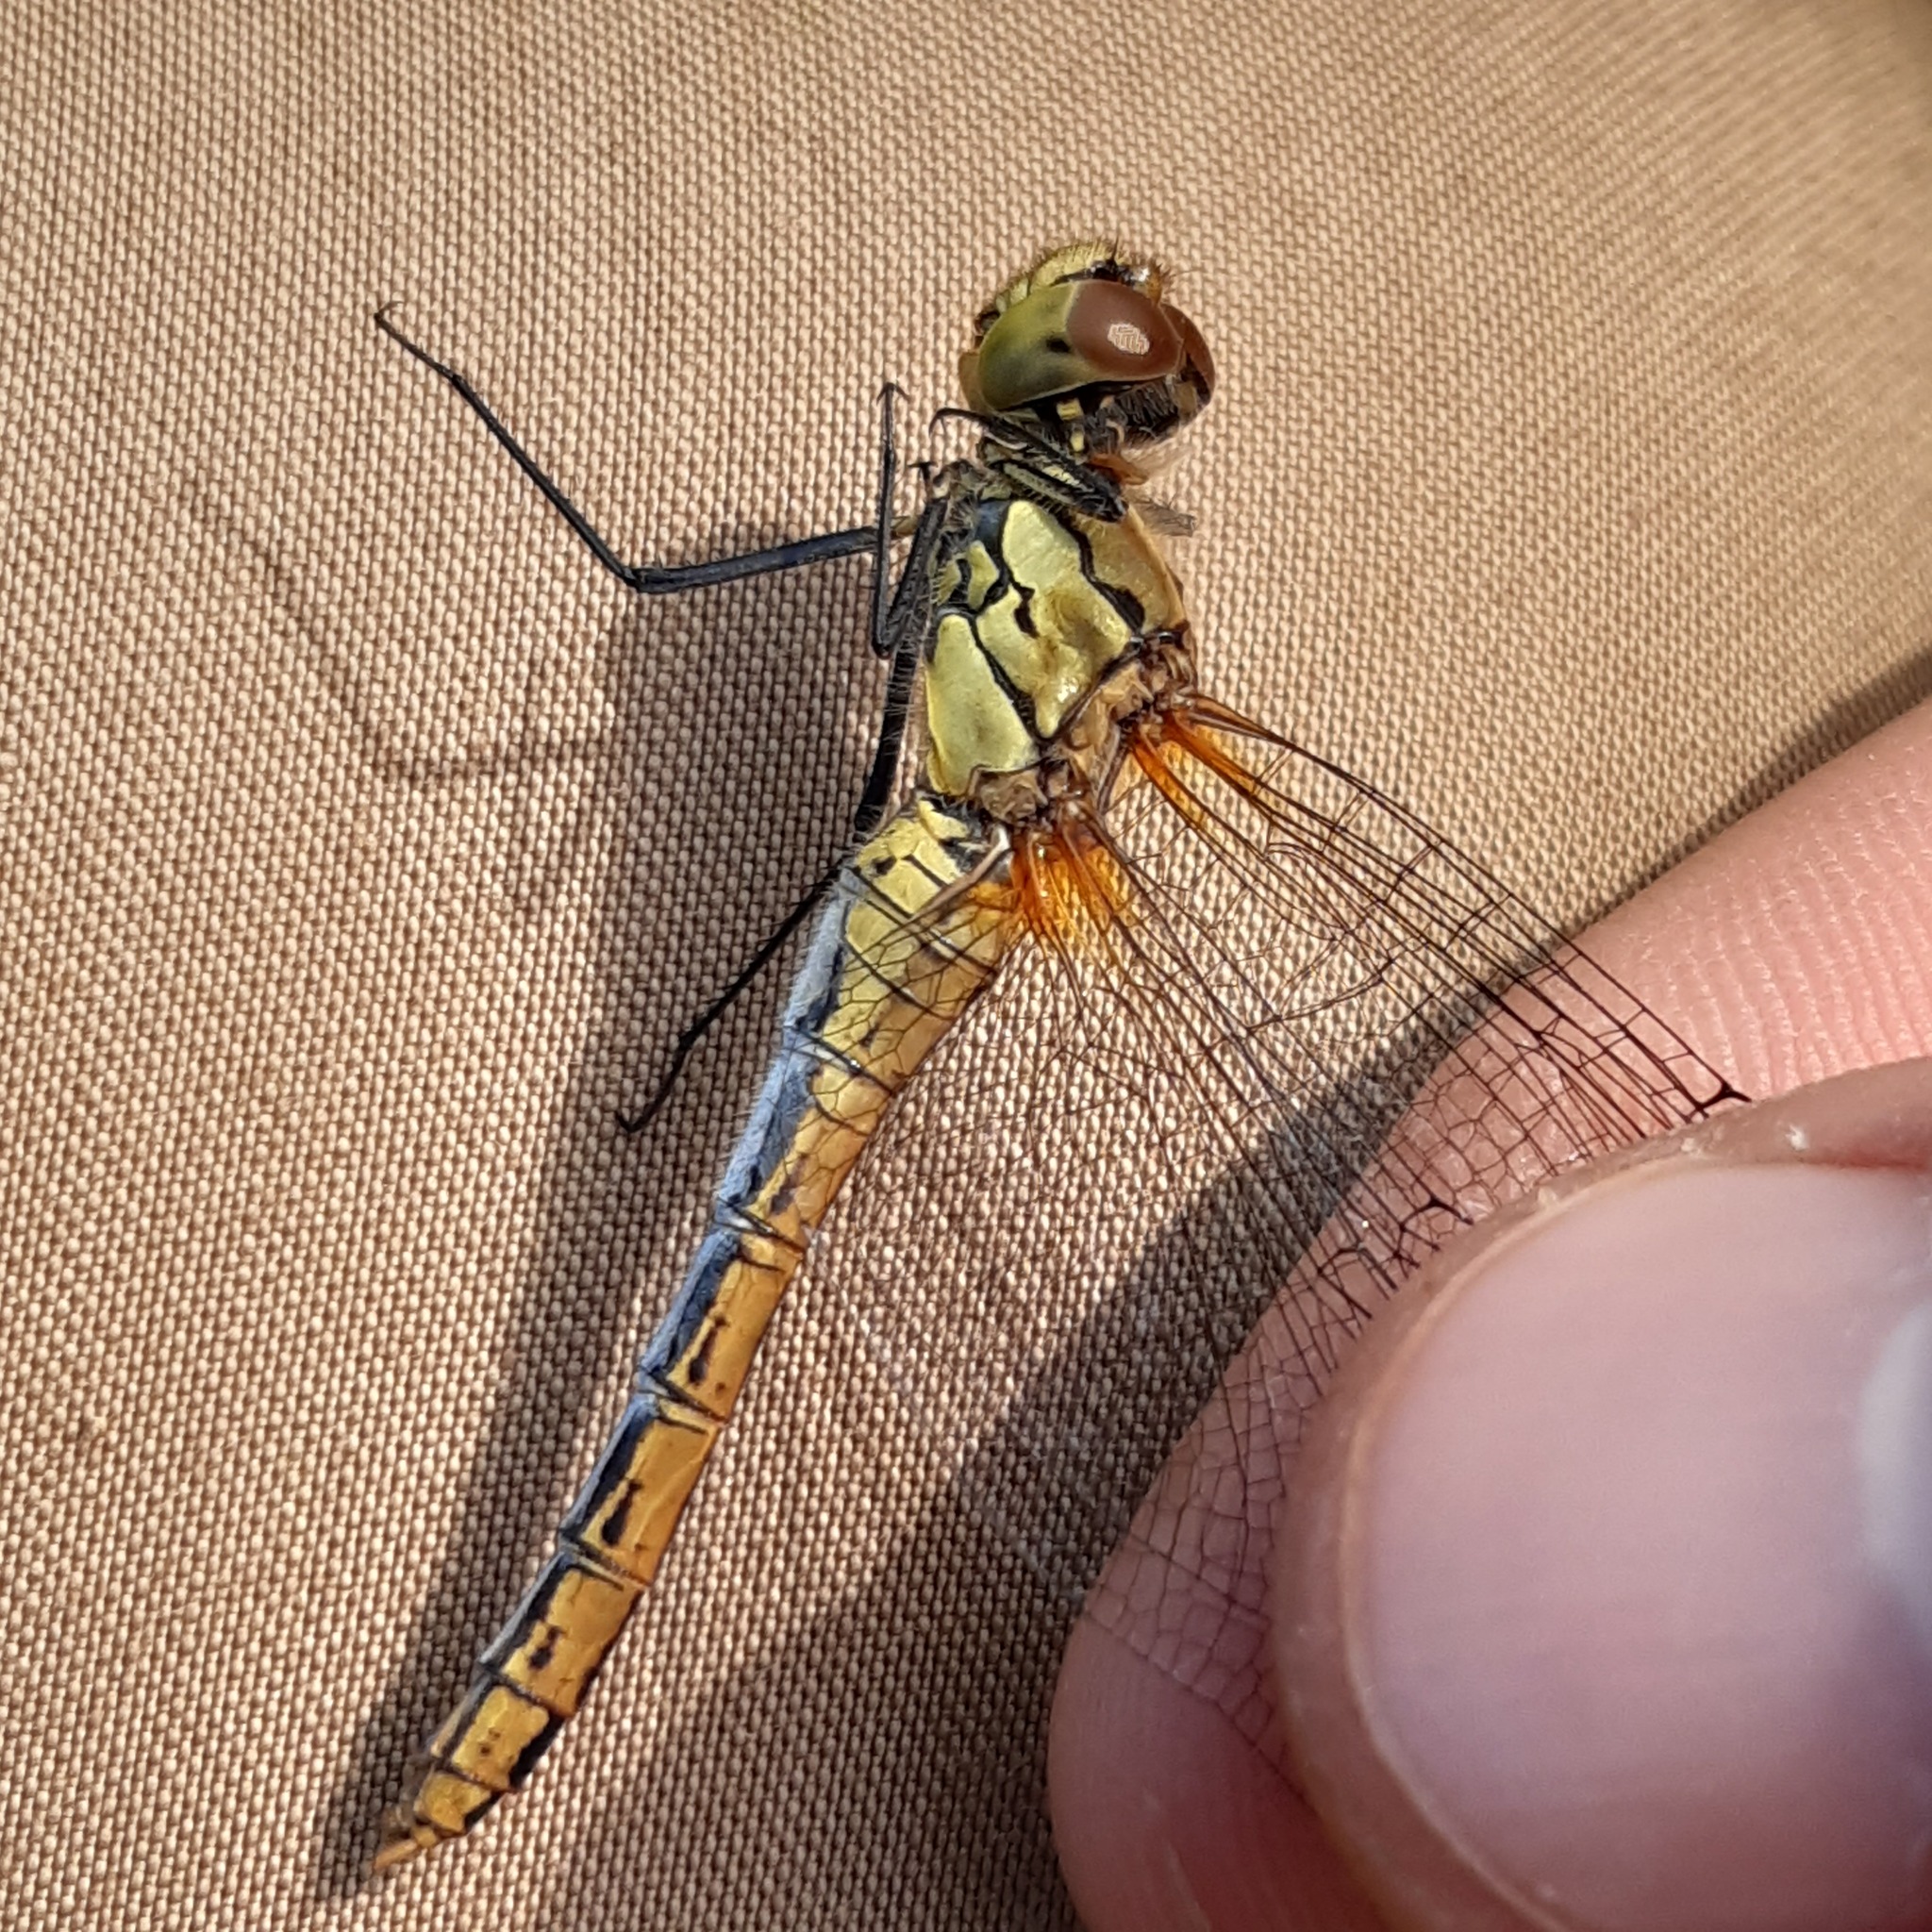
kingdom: Animalia
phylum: Arthropoda
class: Insecta
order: Odonata
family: Libellulidae
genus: Sympetrum
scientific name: Sympetrum sanguineum
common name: Ruddy darter
